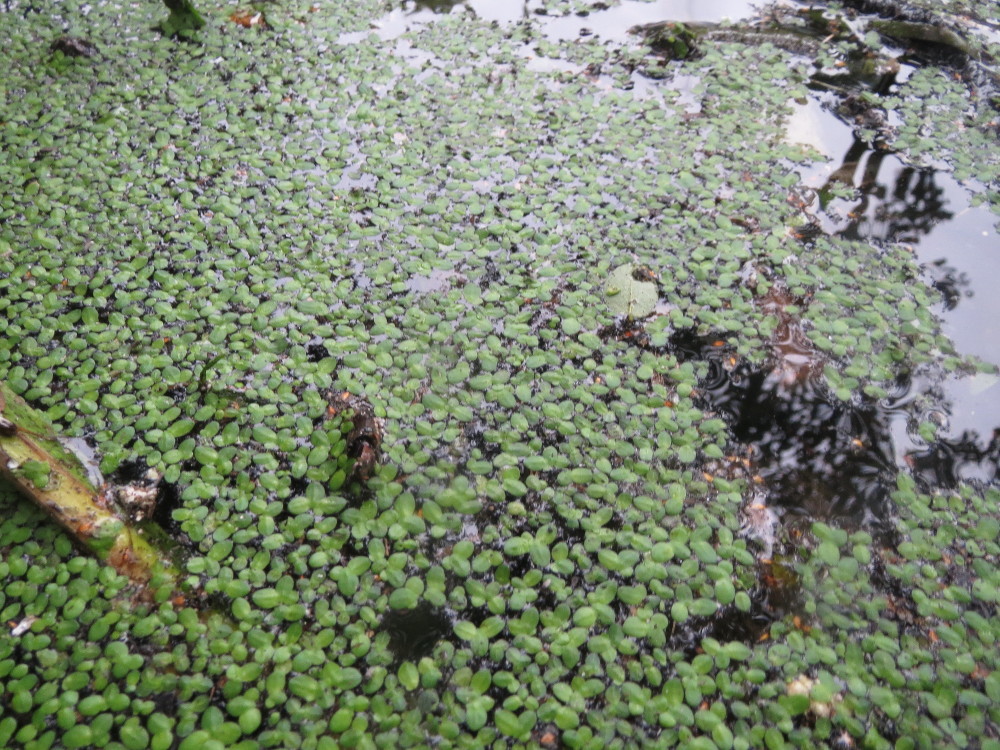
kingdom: Plantae
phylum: Tracheophyta
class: Liliopsida
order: Alismatales
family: Araceae
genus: Lemna
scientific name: Lemna minor
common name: Common duckweed
